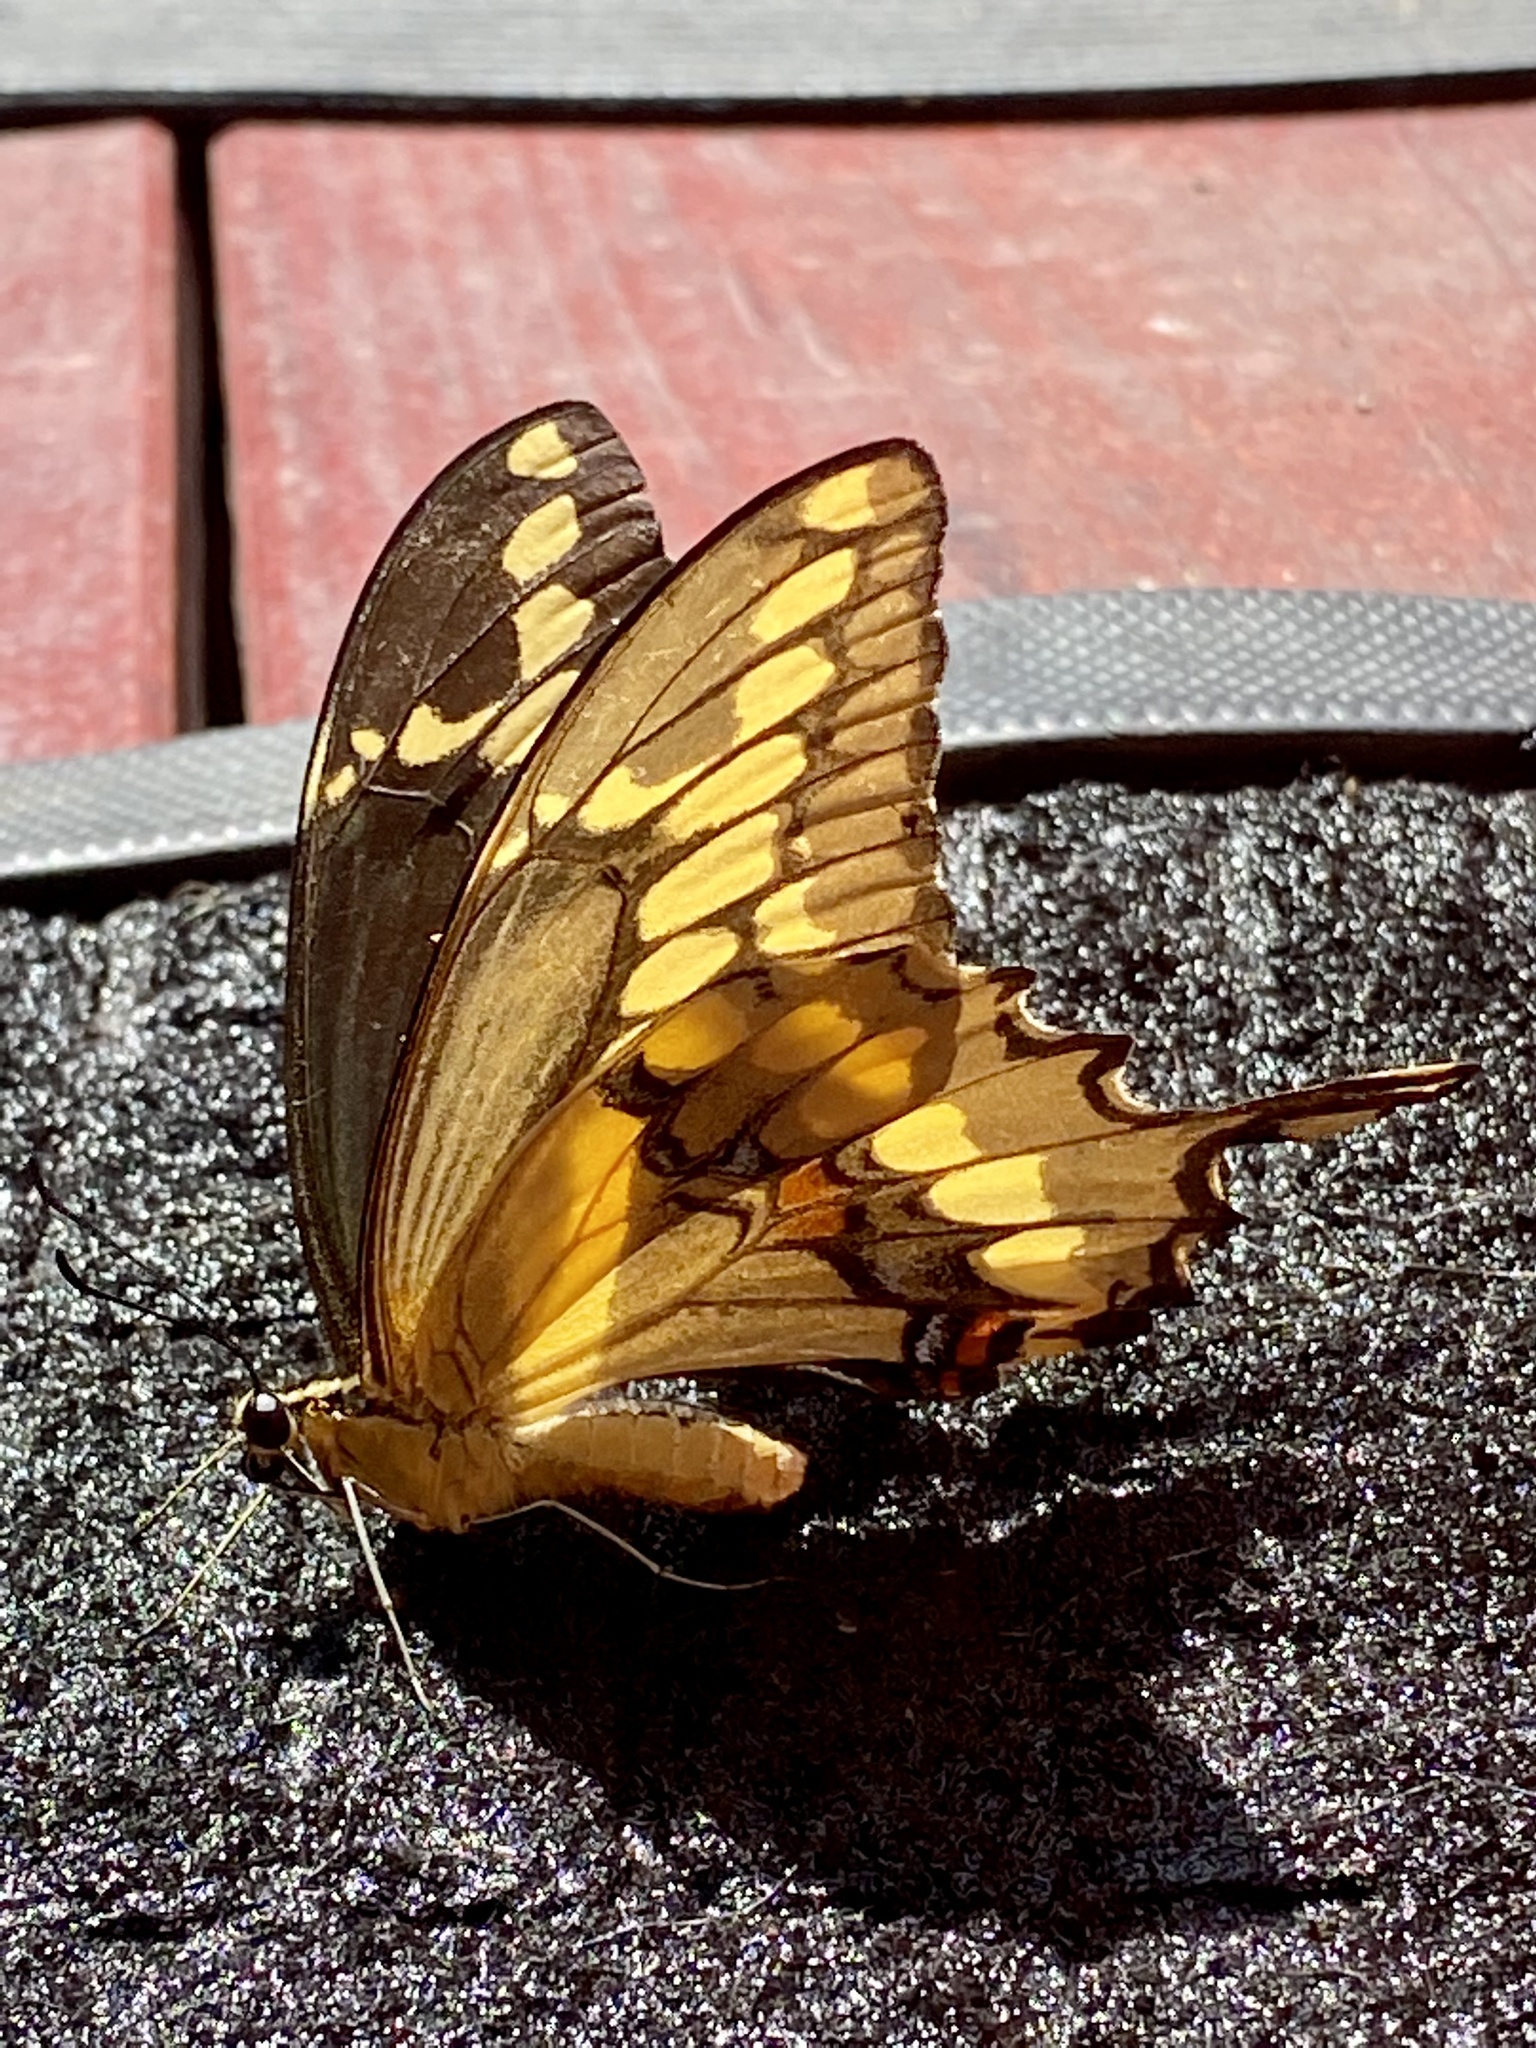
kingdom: Animalia
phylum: Arthropoda
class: Insecta
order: Lepidoptera
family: Papilionidae
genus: Papilio
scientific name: Papilio rumiko
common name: Western giant swallowtail
